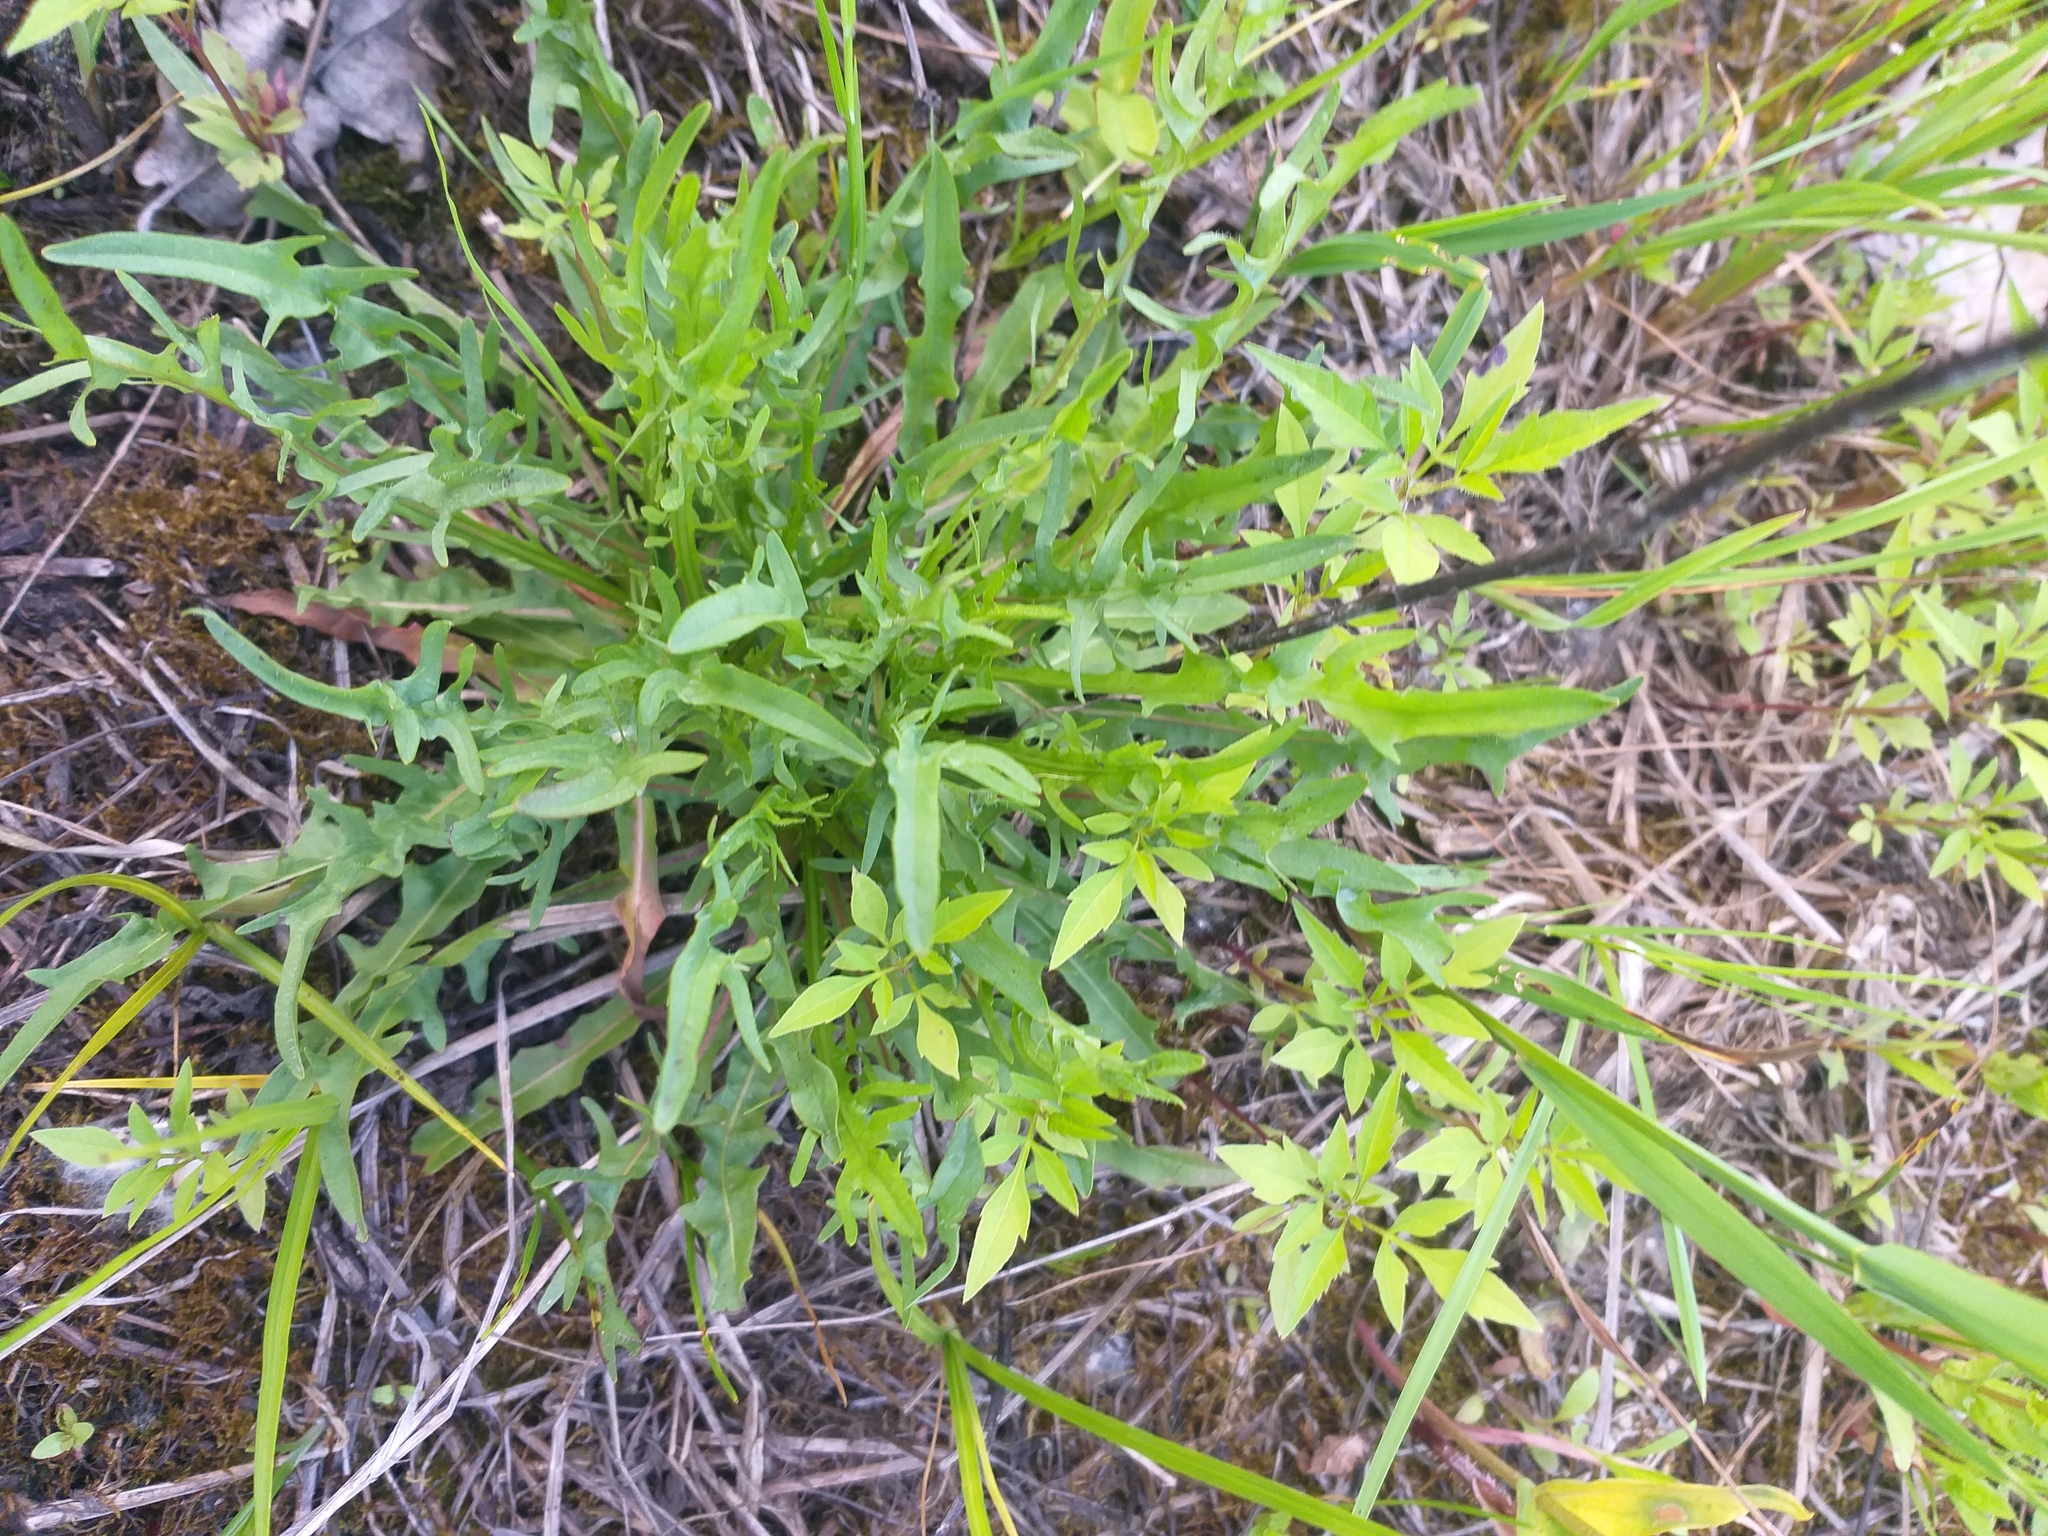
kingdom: Plantae
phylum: Tracheophyta
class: Magnoliopsida
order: Asterales
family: Asteraceae
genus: Scorzoneroides
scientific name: Scorzoneroides autumnalis
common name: Autumn hawkbit
